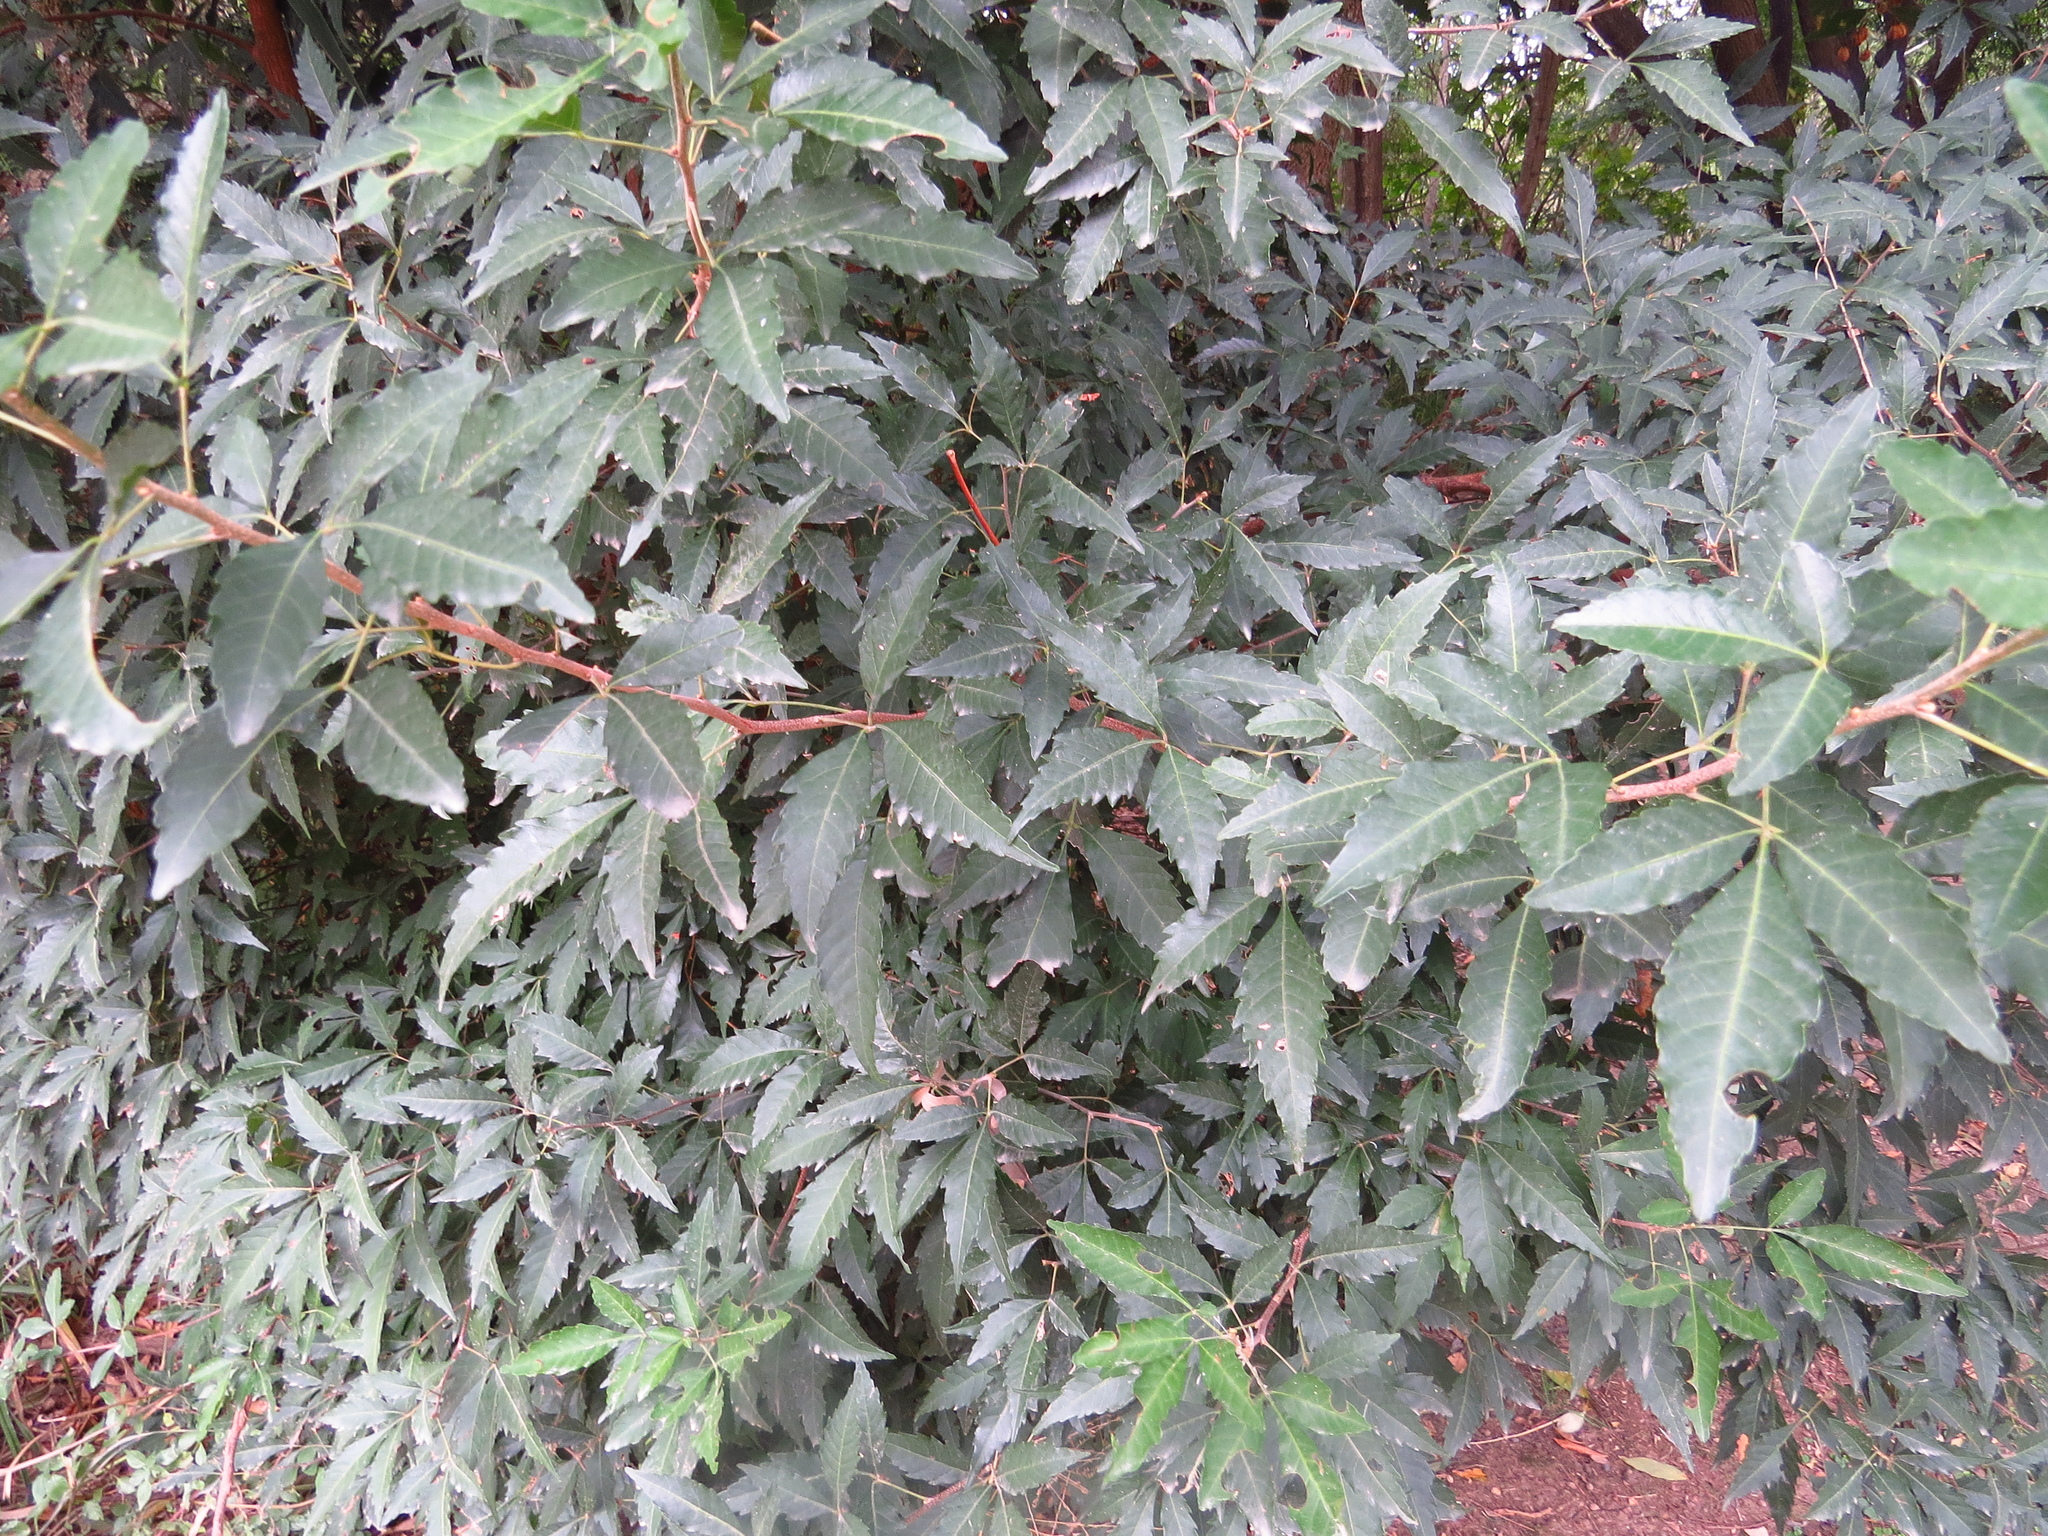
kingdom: Plantae
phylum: Tracheophyta
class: Magnoliopsida
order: Sapindales
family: Sapindaceae
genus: Allophylus
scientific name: Allophylus edulis
